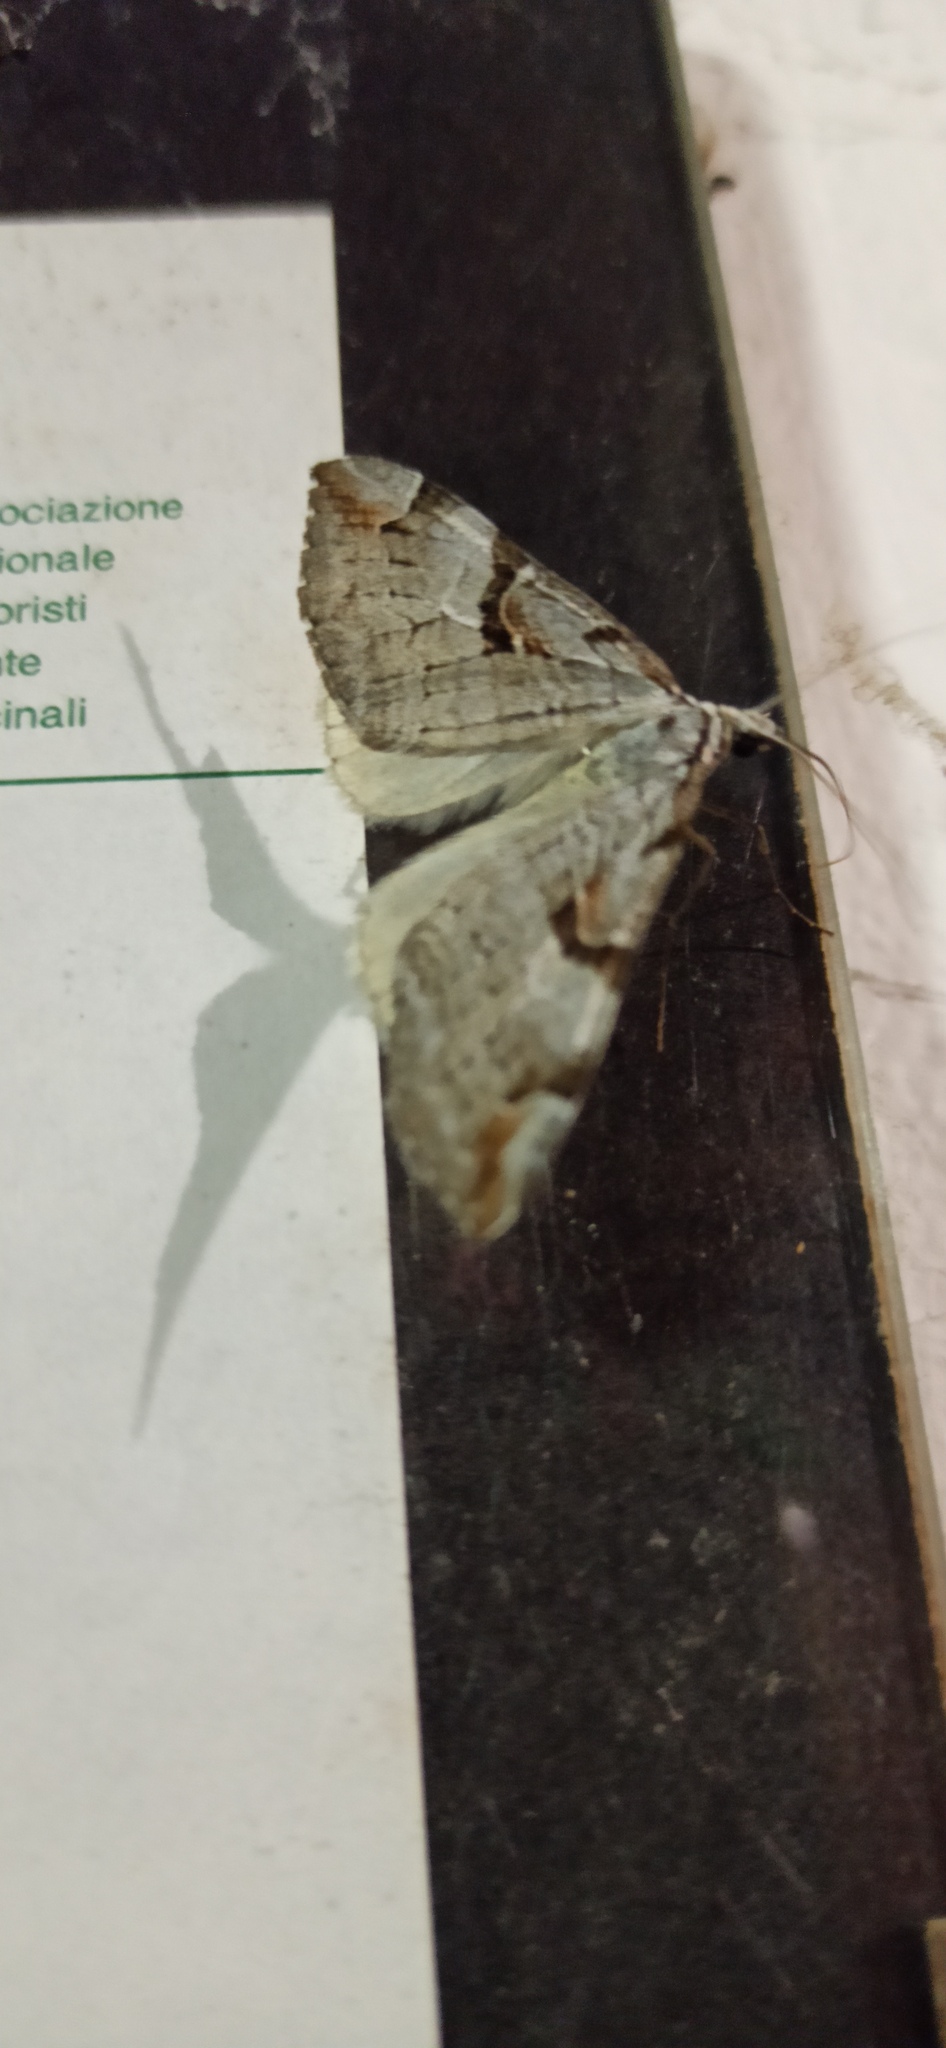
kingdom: Animalia
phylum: Arthropoda
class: Insecta
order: Lepidoptera
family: Geometridae
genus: Aplocera
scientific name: Aplocera praeformata
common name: Purple treble-bar
